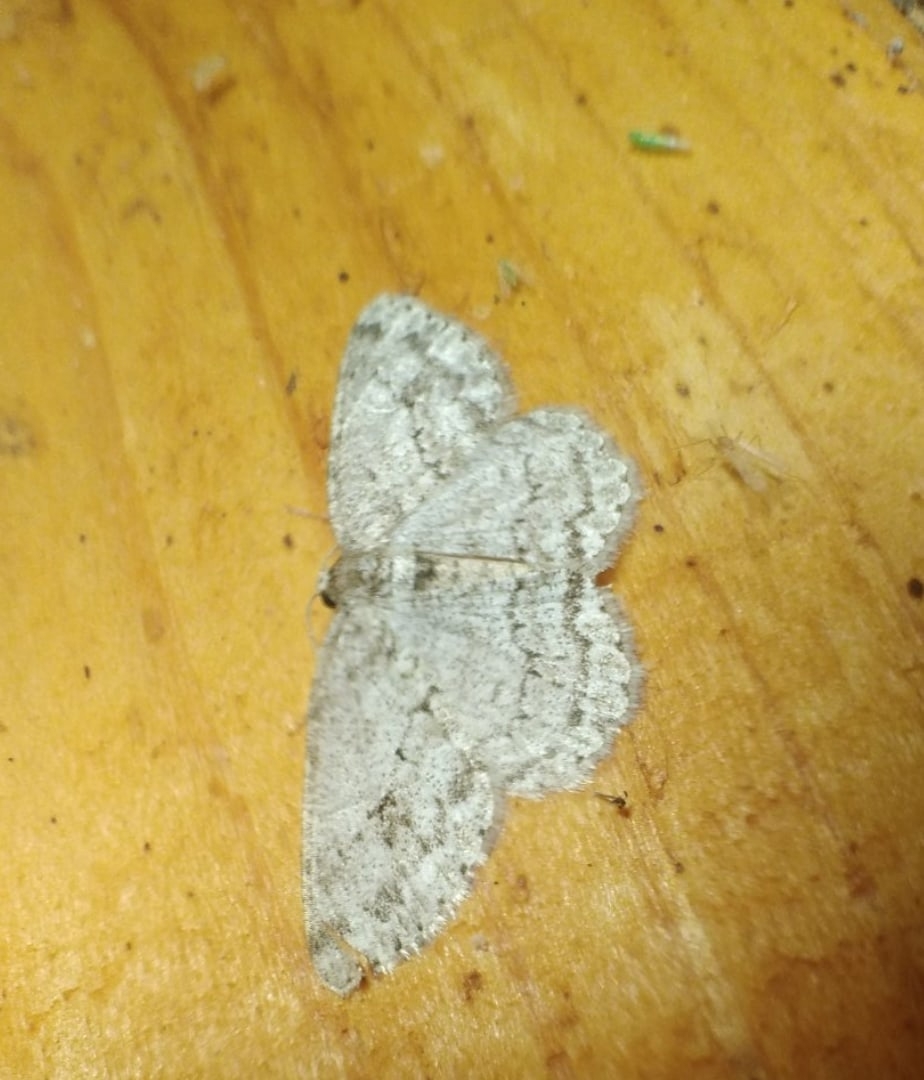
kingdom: Animalia
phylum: Arthropoda
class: Insecta
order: Lepidoptera
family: Geometridae
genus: Ectropis
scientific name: Ectropis crepuscularia
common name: Engrailed
